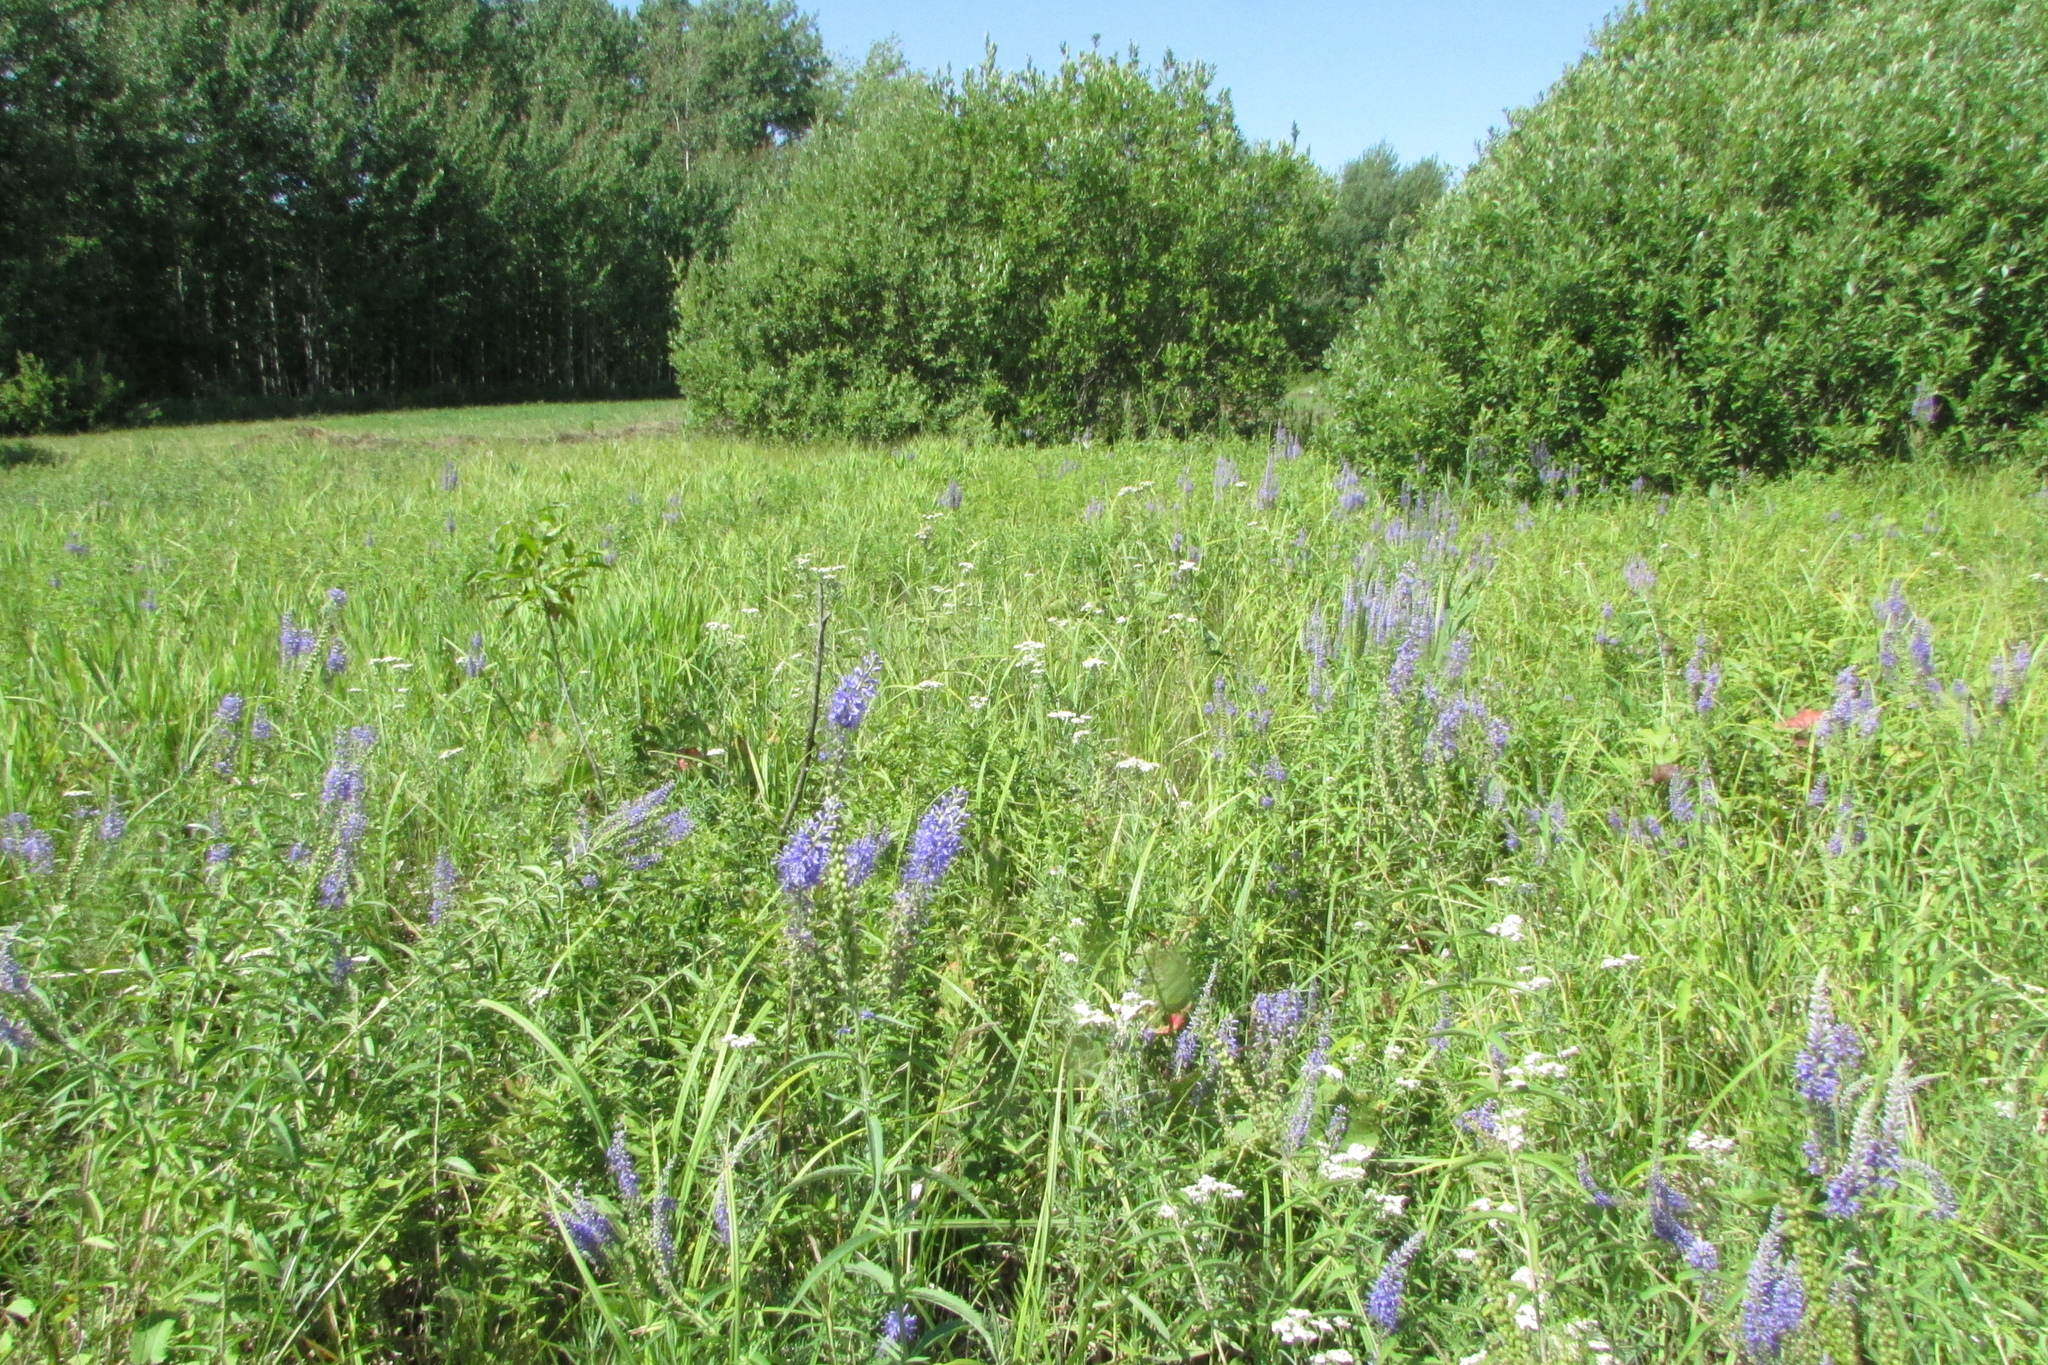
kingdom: Plantae
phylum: Tracheophyta
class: Magnoliopsida
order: Lamiales
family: Plantaginaceae
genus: Veronica
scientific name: Veronica longifolia
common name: Garden speedwell
